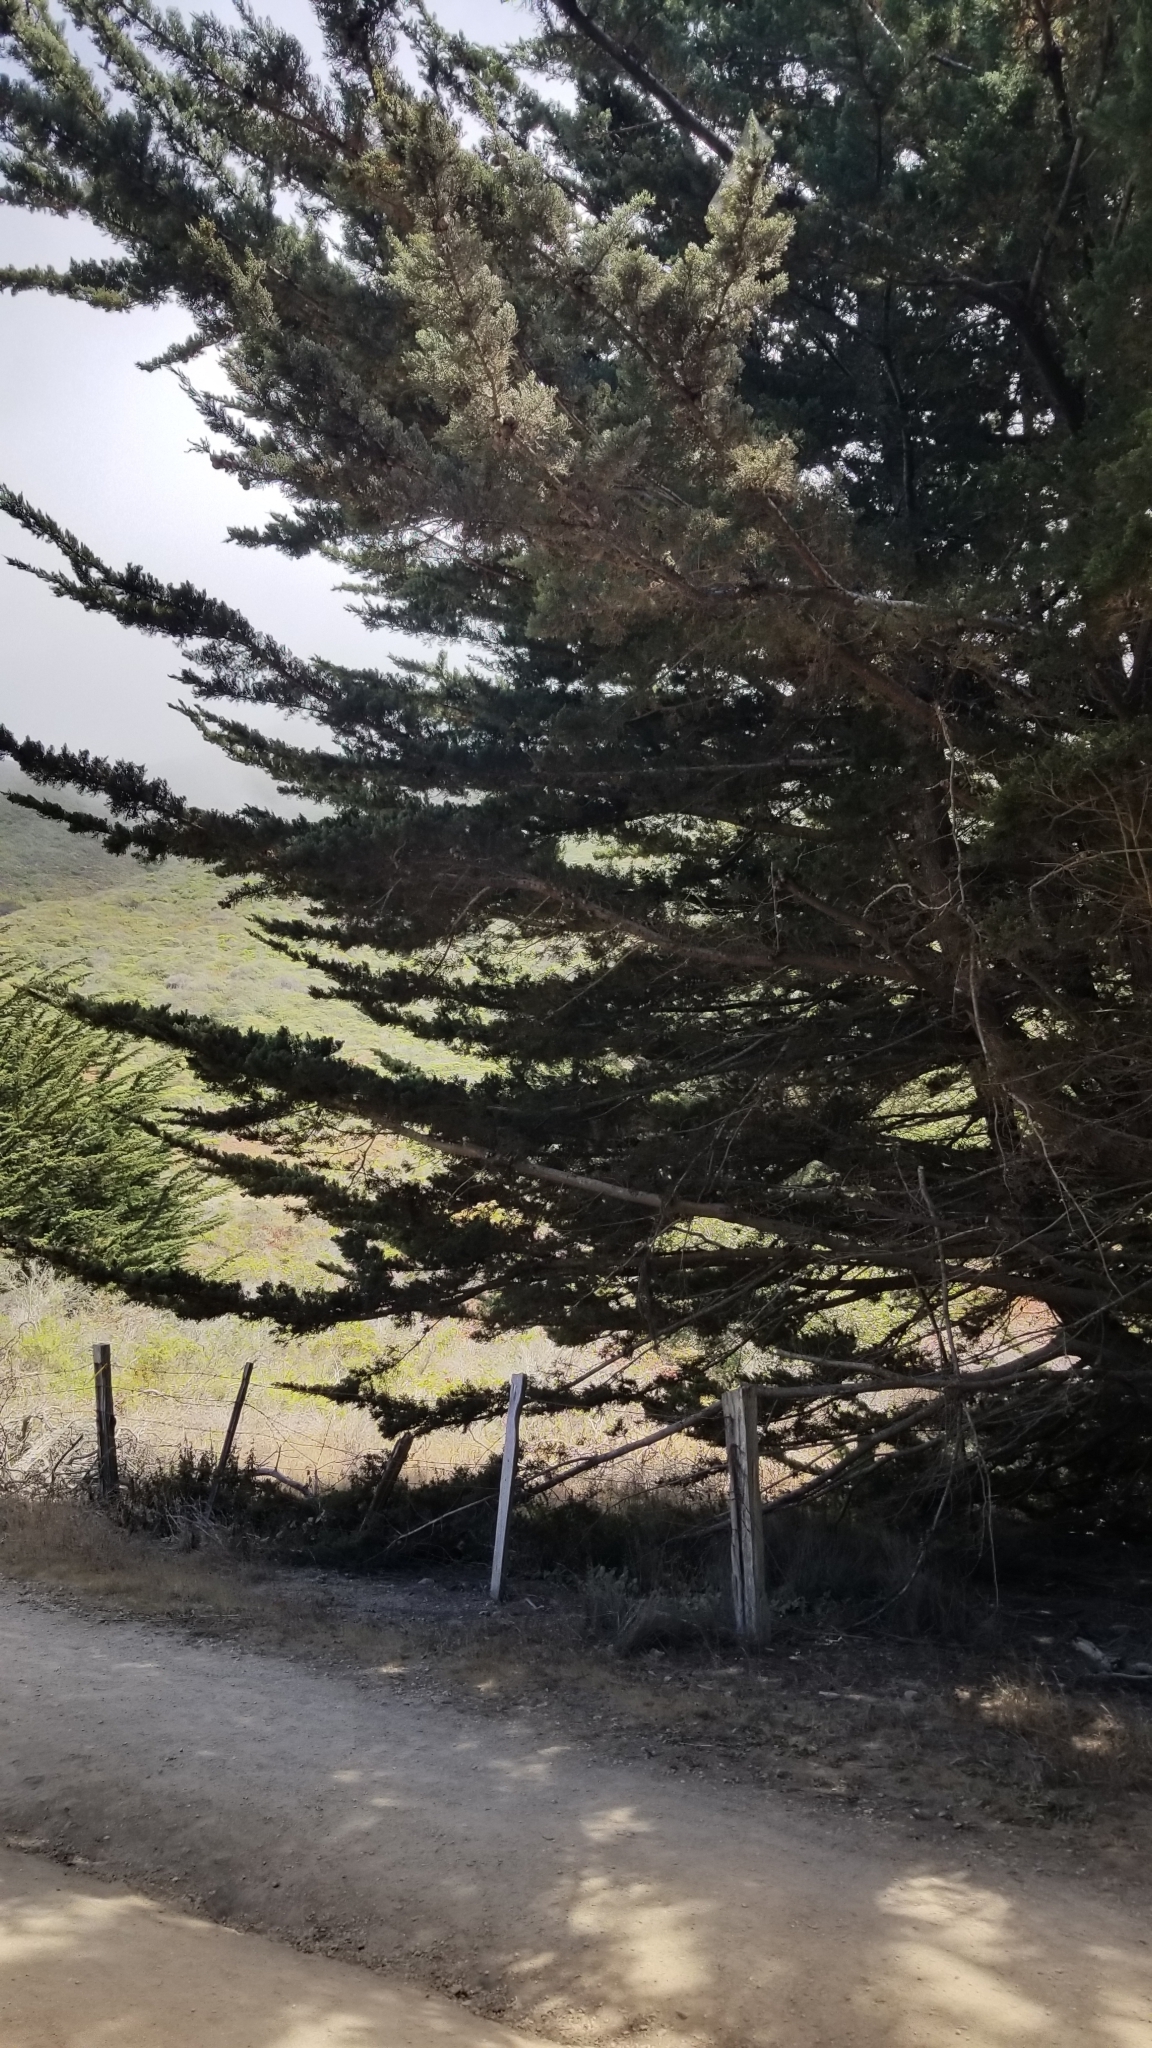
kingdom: Plantae
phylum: Tracheophyta
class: Pinopsida
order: Pinales
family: Cupressaceae
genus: Cupressus
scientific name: Cupressus macrocarpa
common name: Monterey cypress
